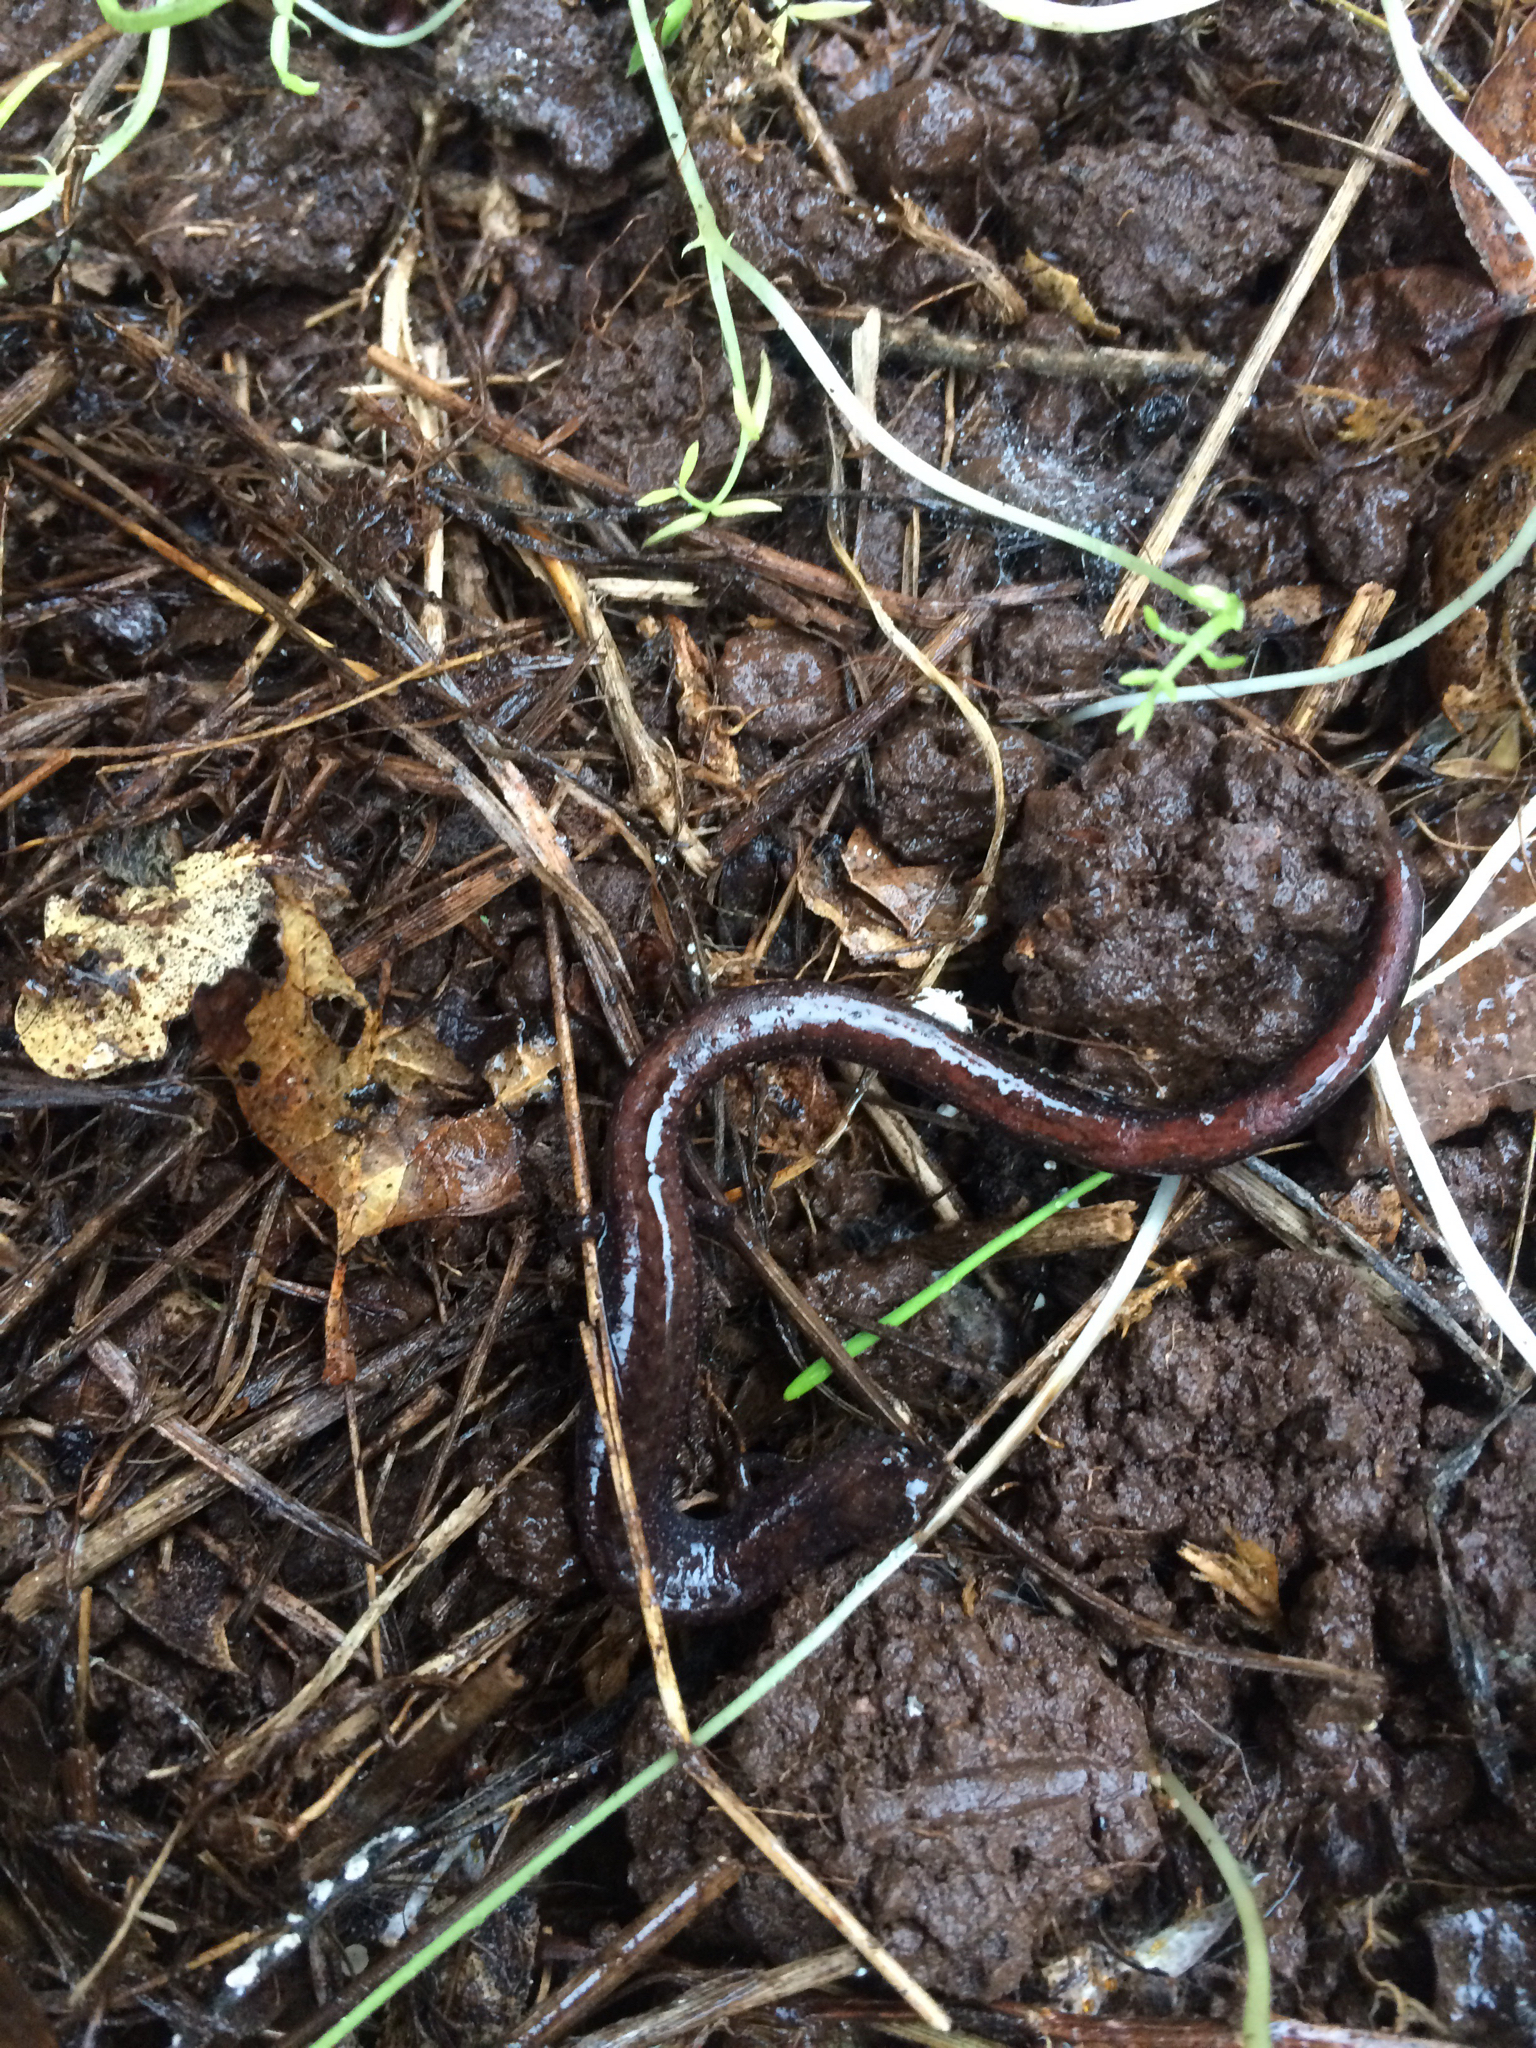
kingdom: Animalia
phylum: Chordata
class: Amphibia
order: Caudata
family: Plethodontidae
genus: Batrachoseps
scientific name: Batrachoseps attenuatus
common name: California slender salamander
